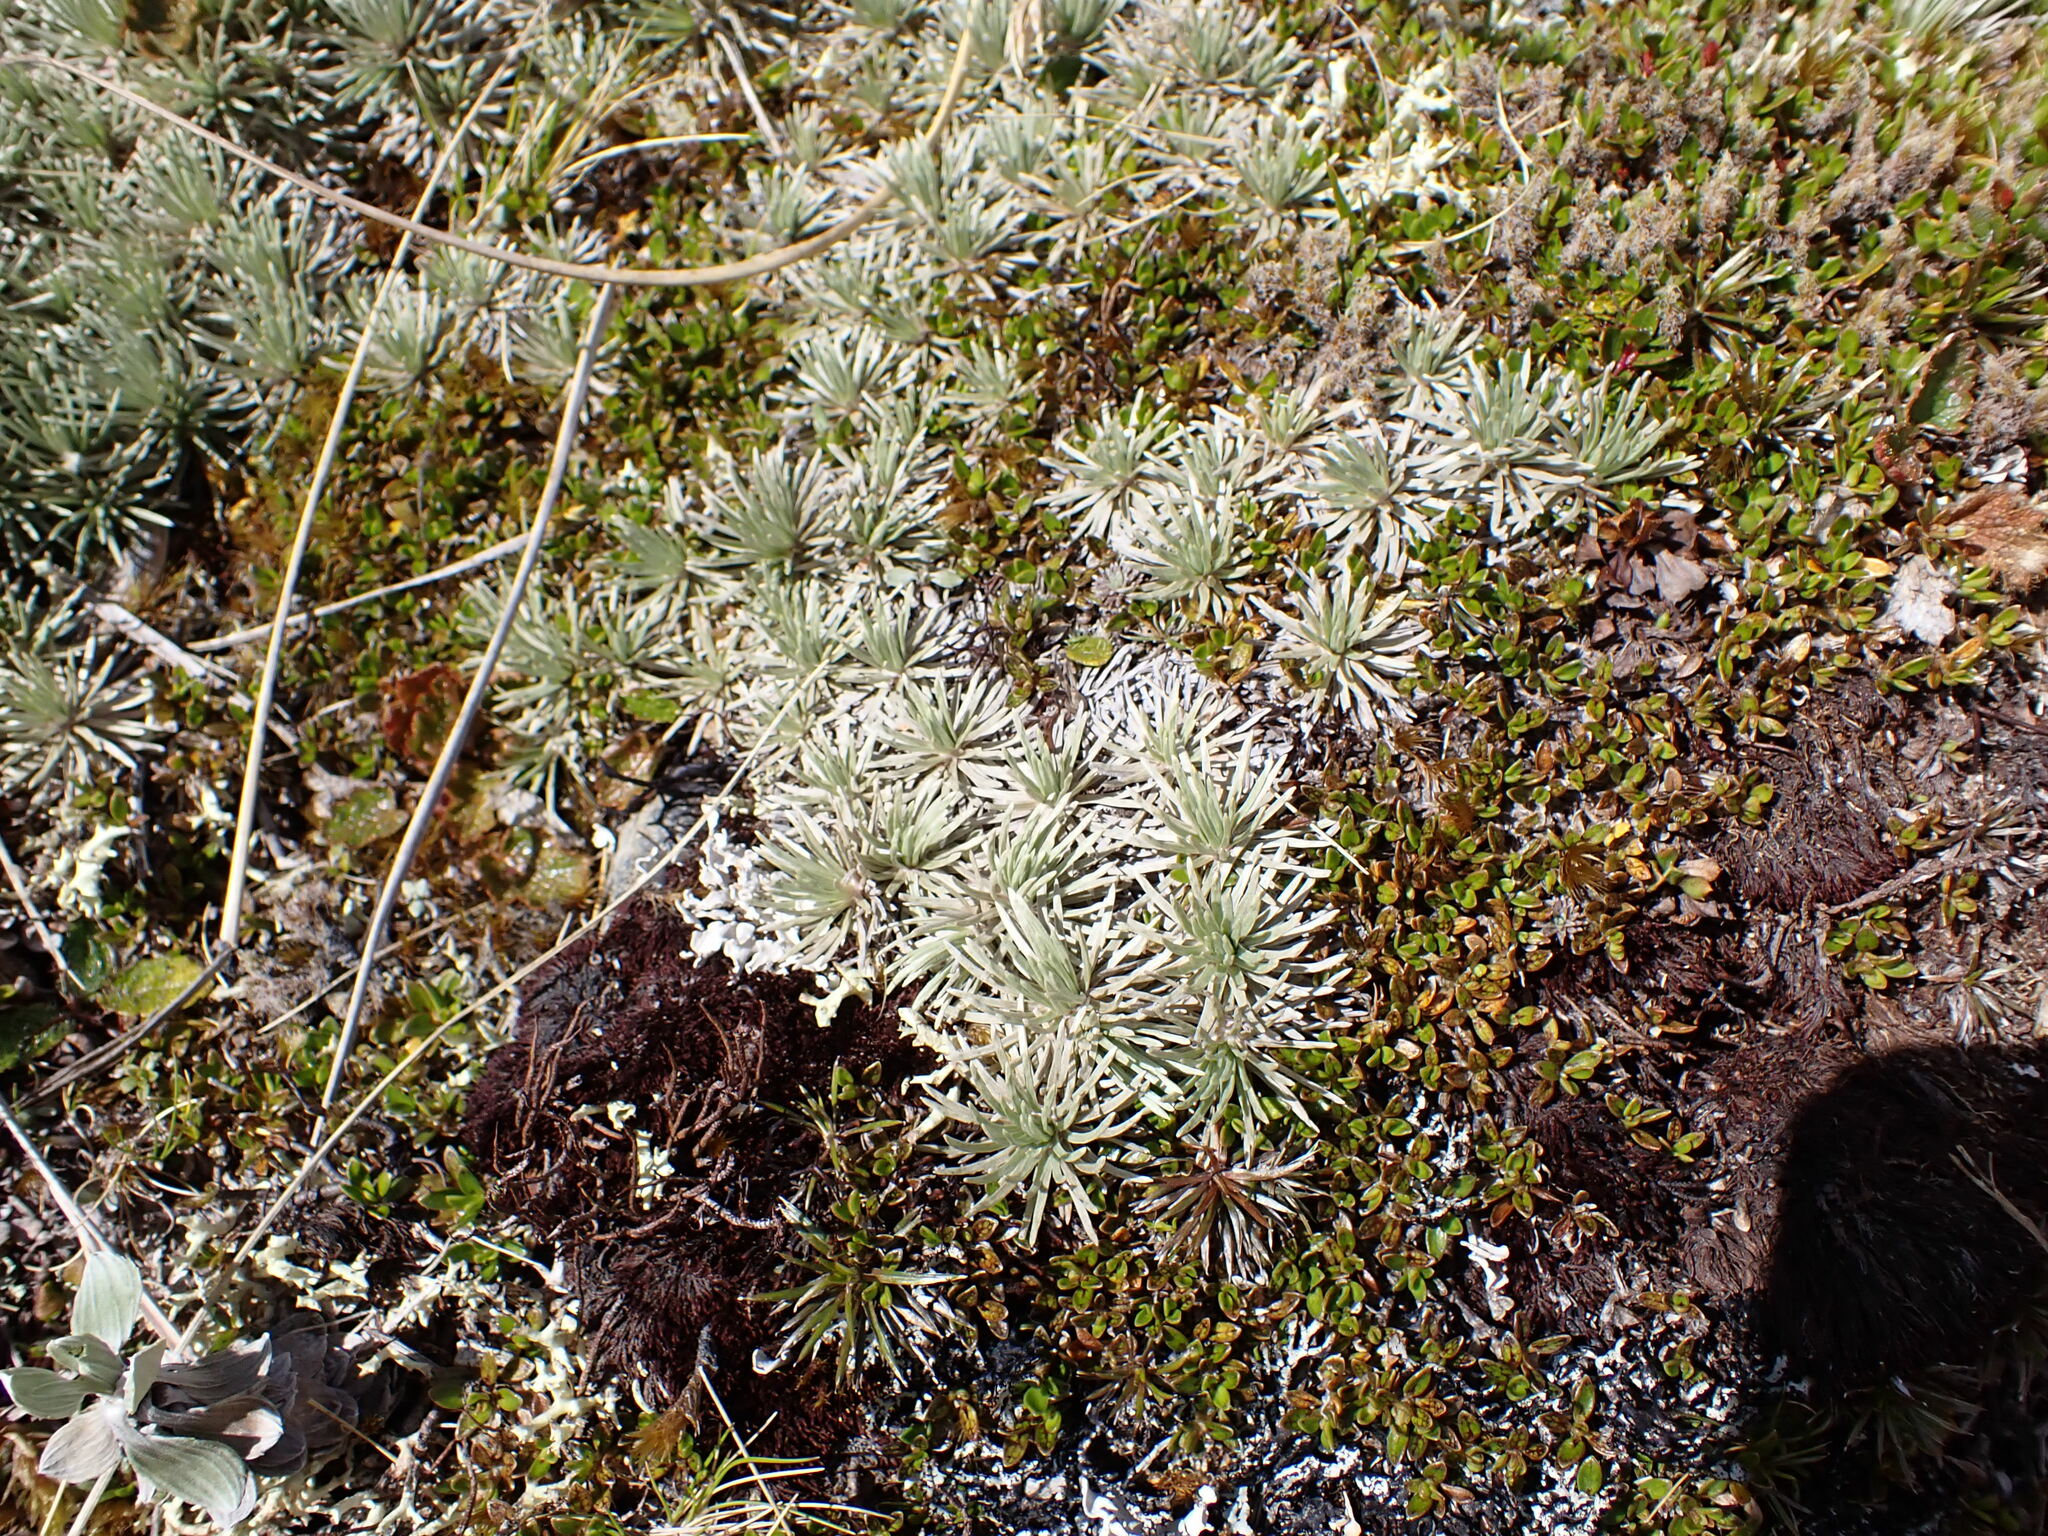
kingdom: Plantae
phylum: Tracheophyta
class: Magnoliopsida
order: Asterales
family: Asteraceae
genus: Celmisia
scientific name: Celmisia sessiliflora
